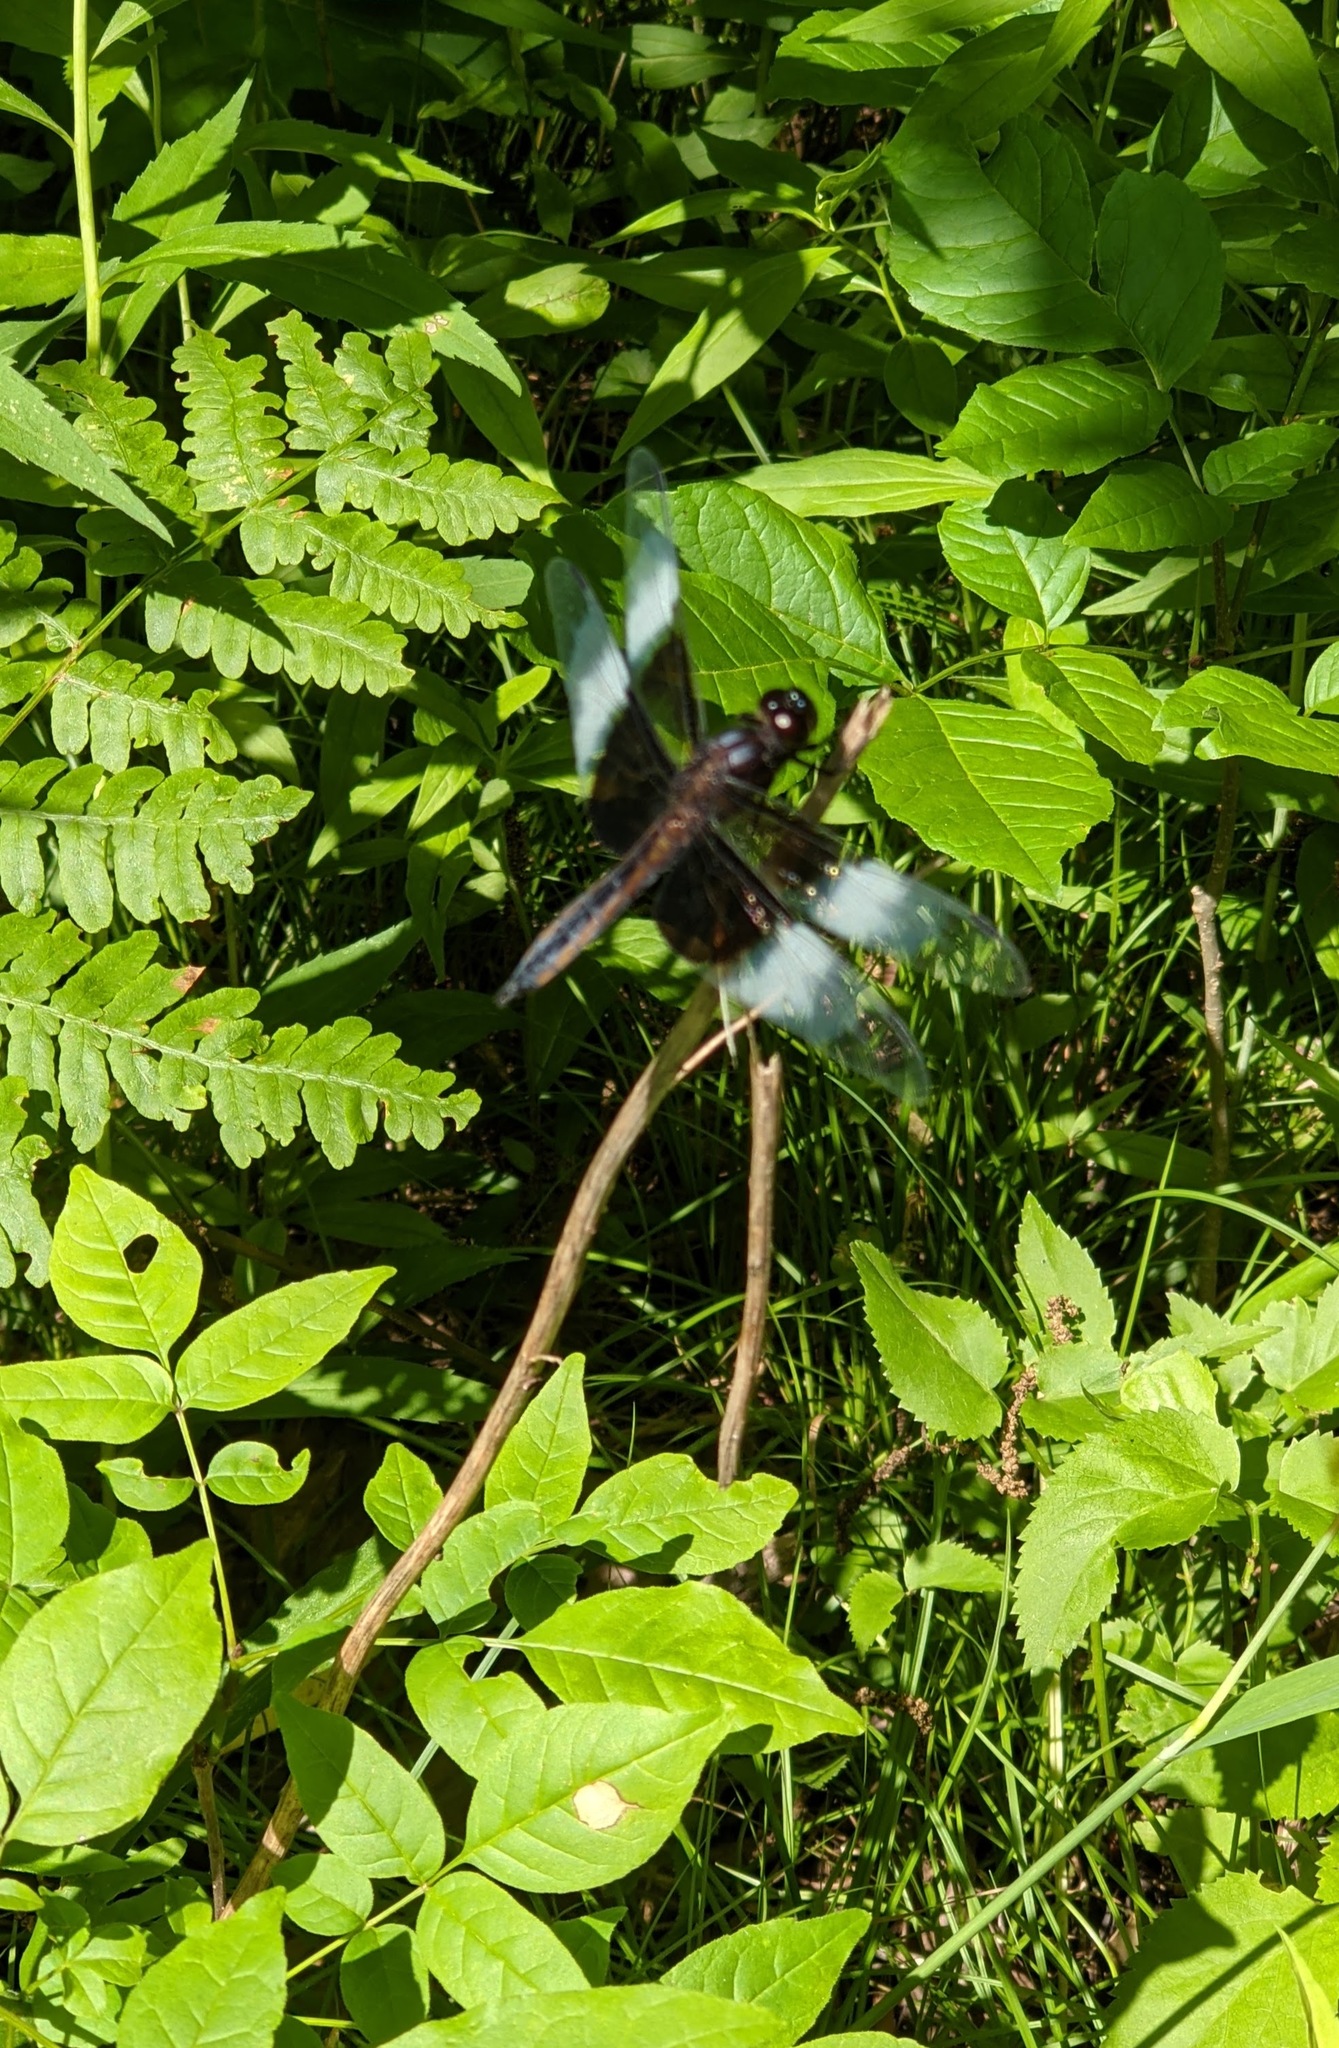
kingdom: Animalia
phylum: Arthropoda
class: Insecta
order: Odonata
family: Libellulidae
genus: Libellula
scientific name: Libellula luctuosa
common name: Widow skimmer
